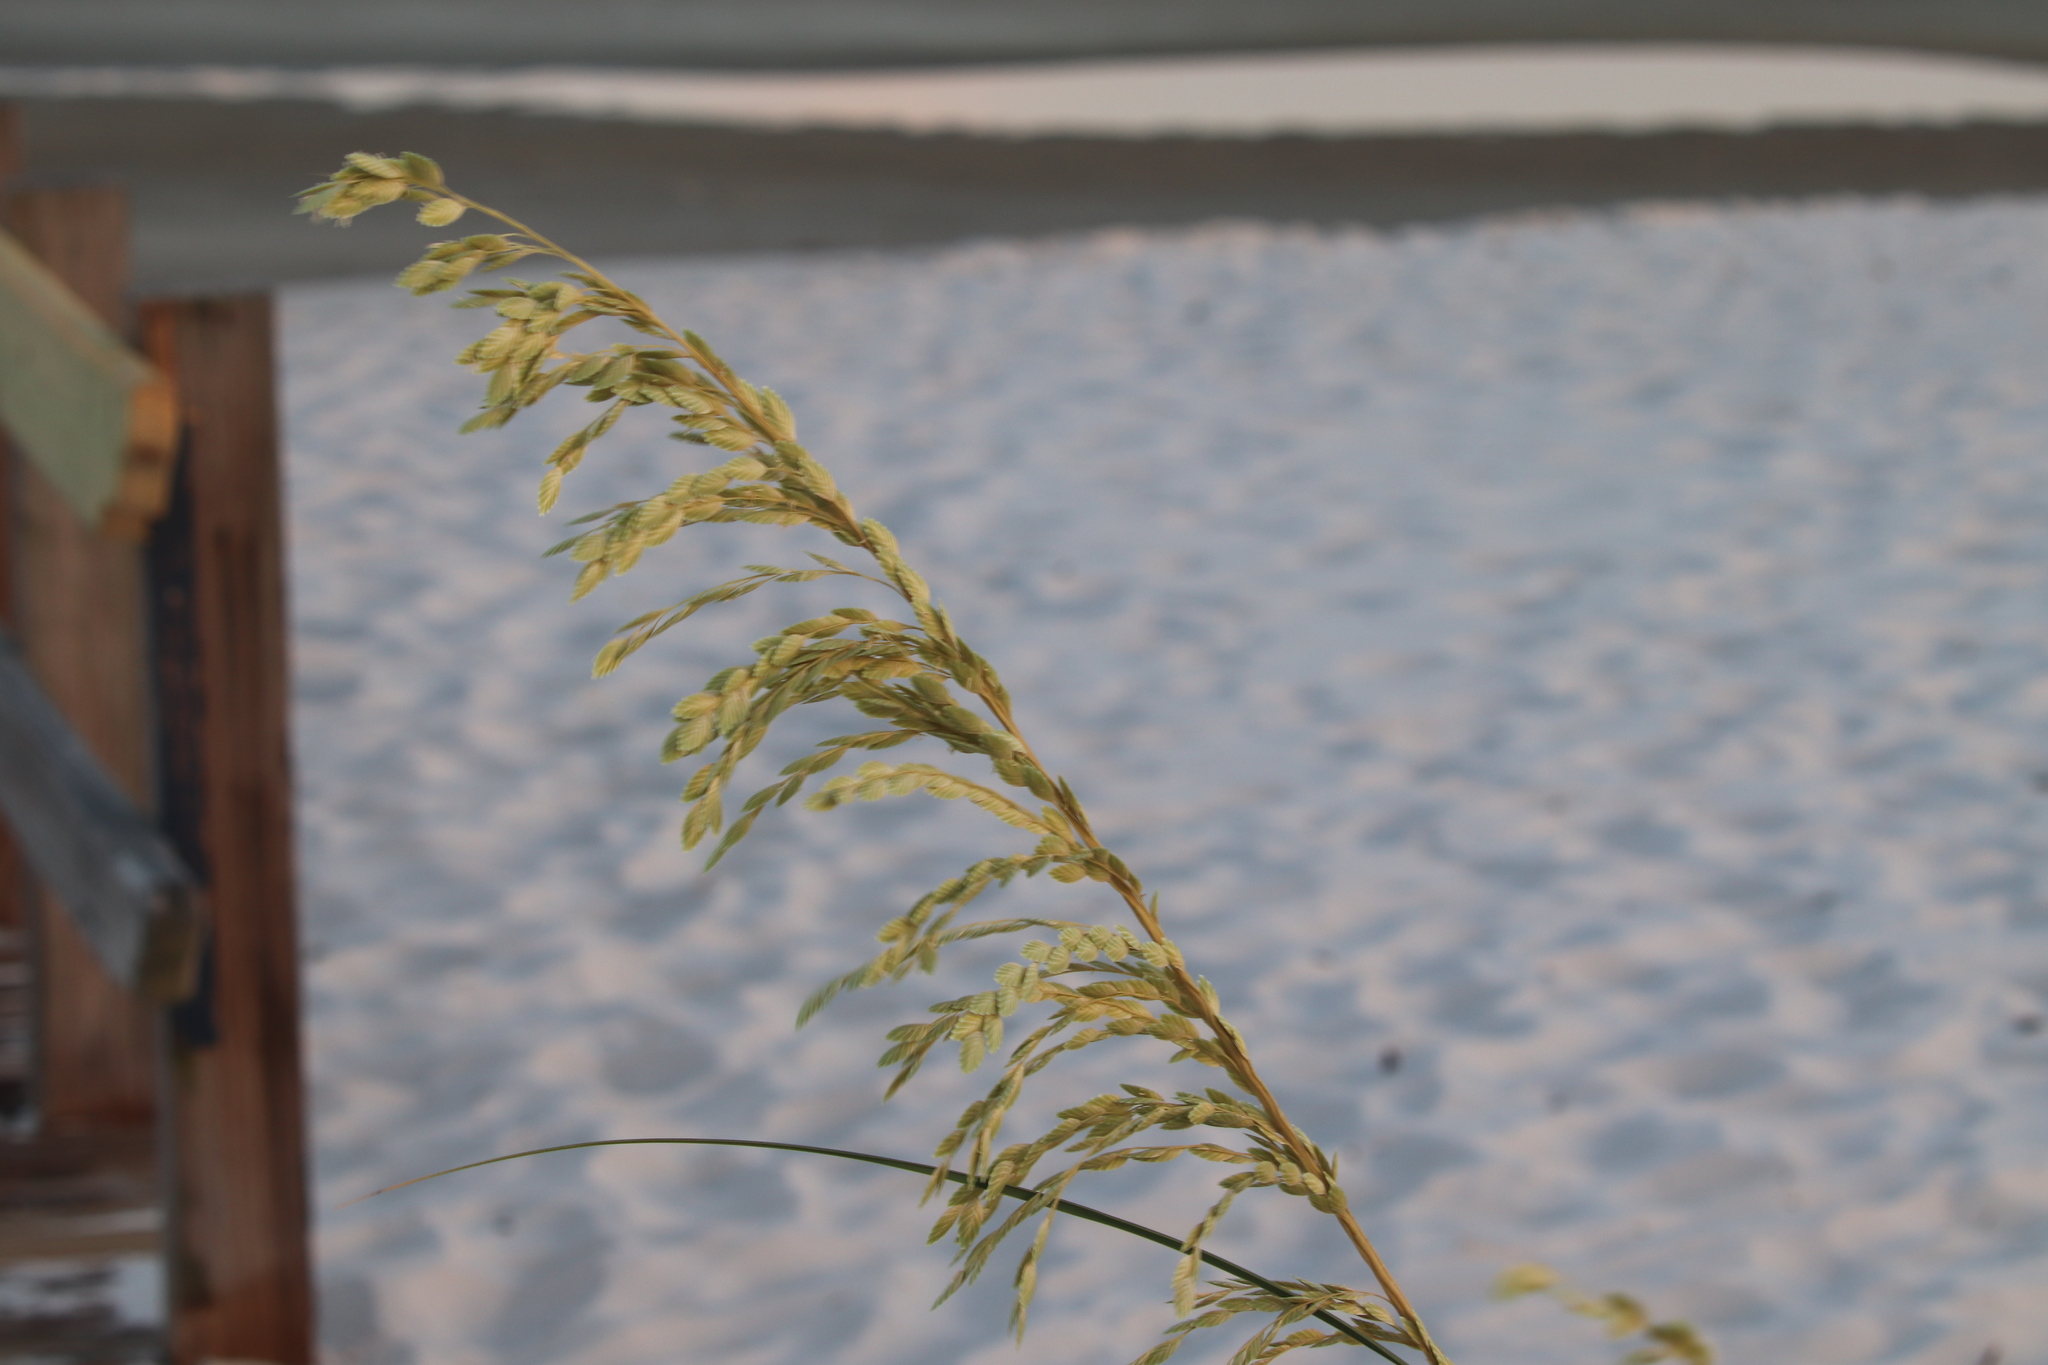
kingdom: Plantae
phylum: Tracheophyta
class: Liliopsida
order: Poales
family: Poaceae
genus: Uniola
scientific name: Uniola paniculata
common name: Seaside-oats
